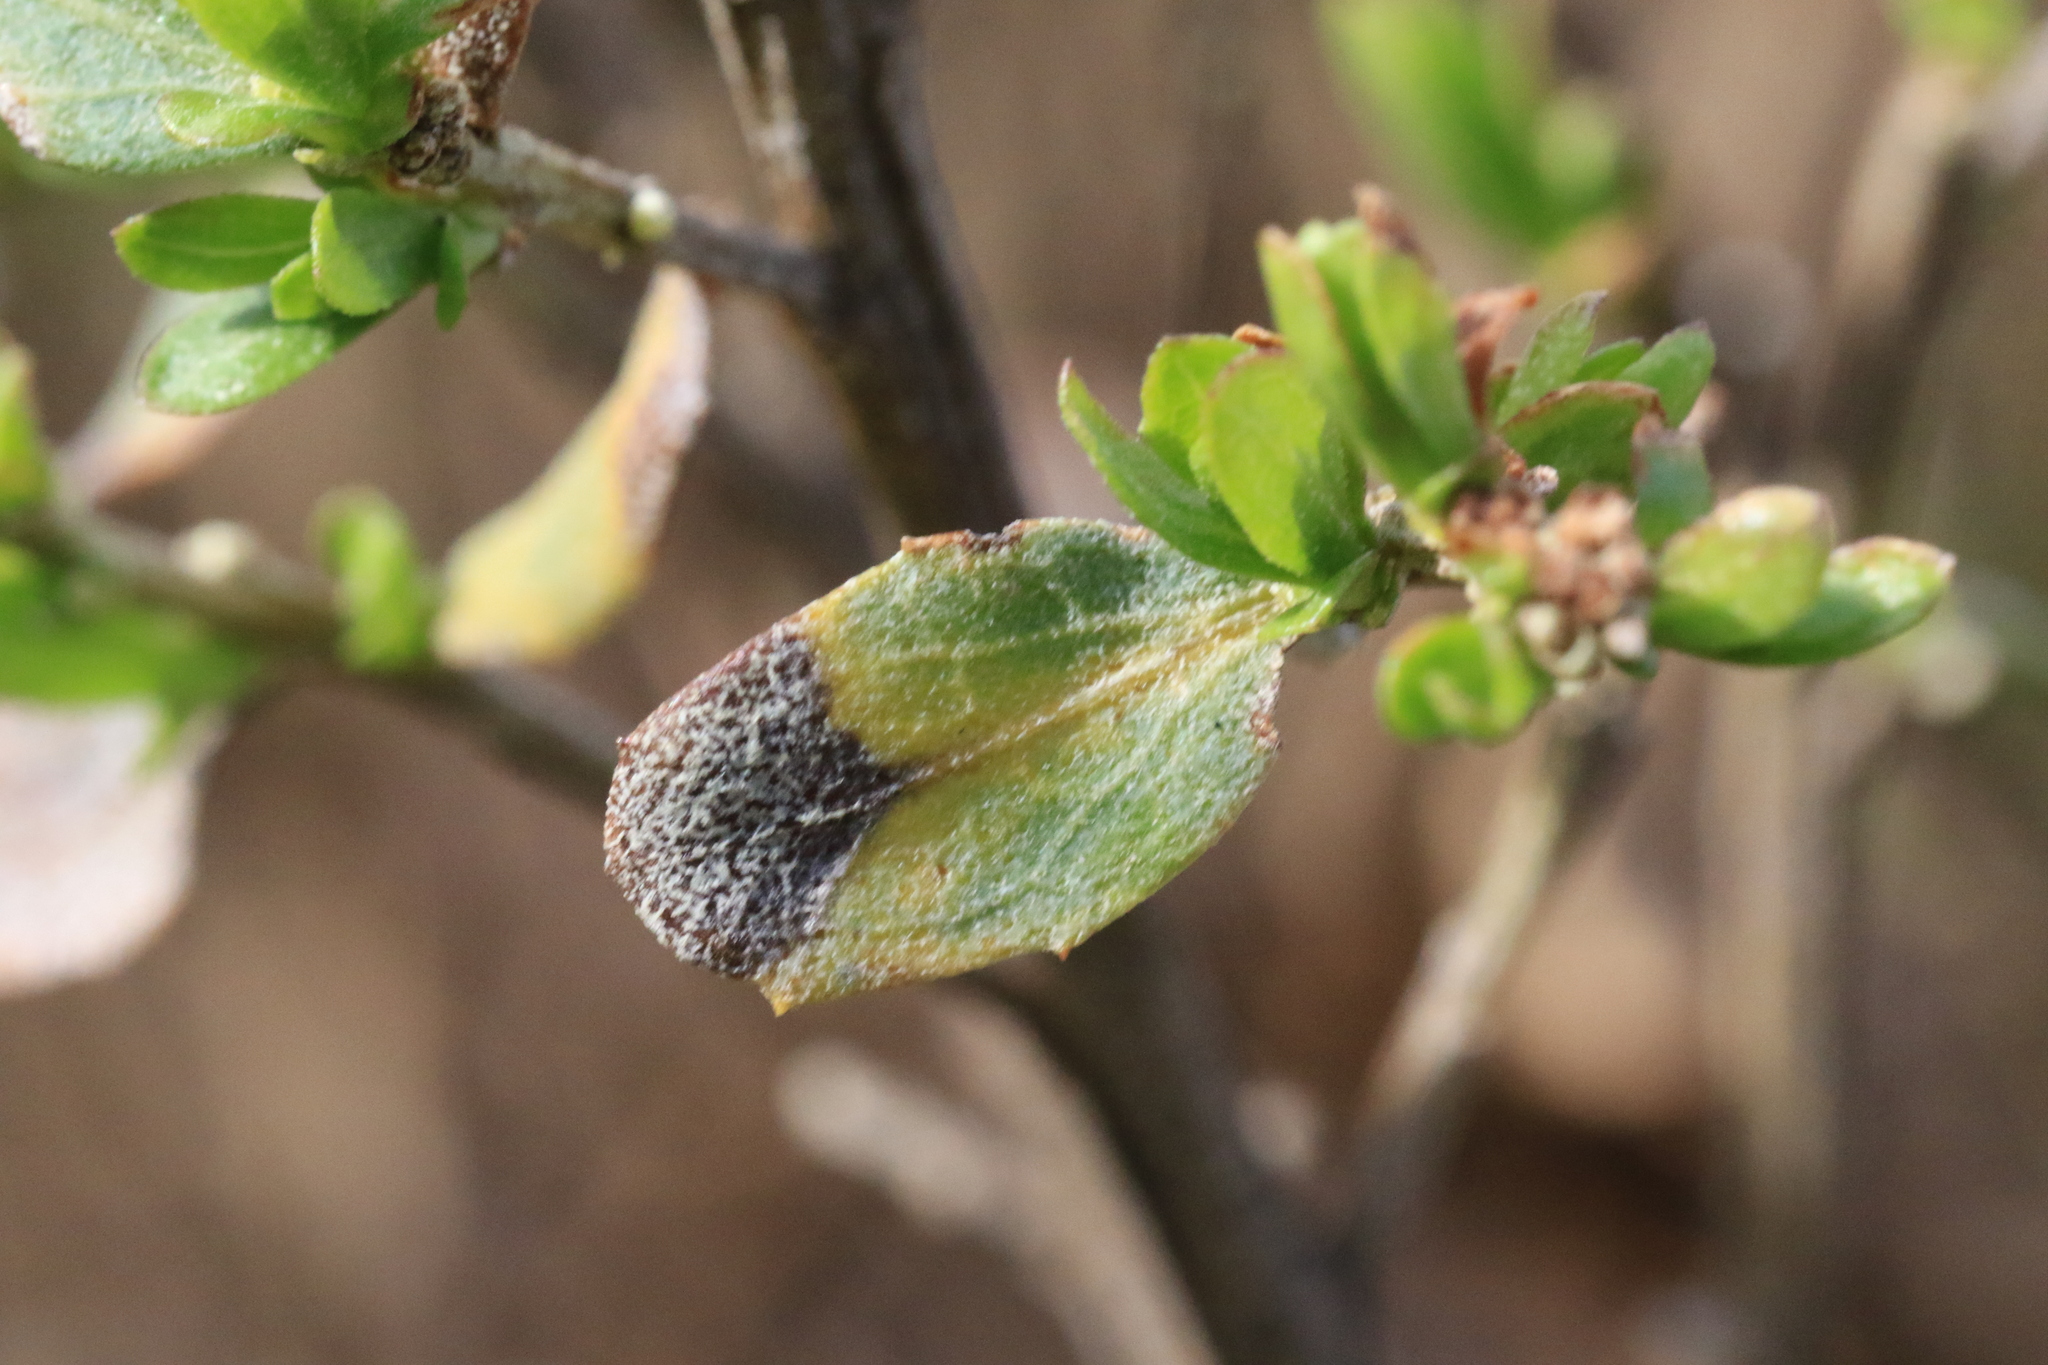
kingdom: Plantae
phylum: Tracheophyta
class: Magnoliopsida
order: Asterales
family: Asteraceae
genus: Baccharis
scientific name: Baccharis pilularis
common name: Coyotebrush
